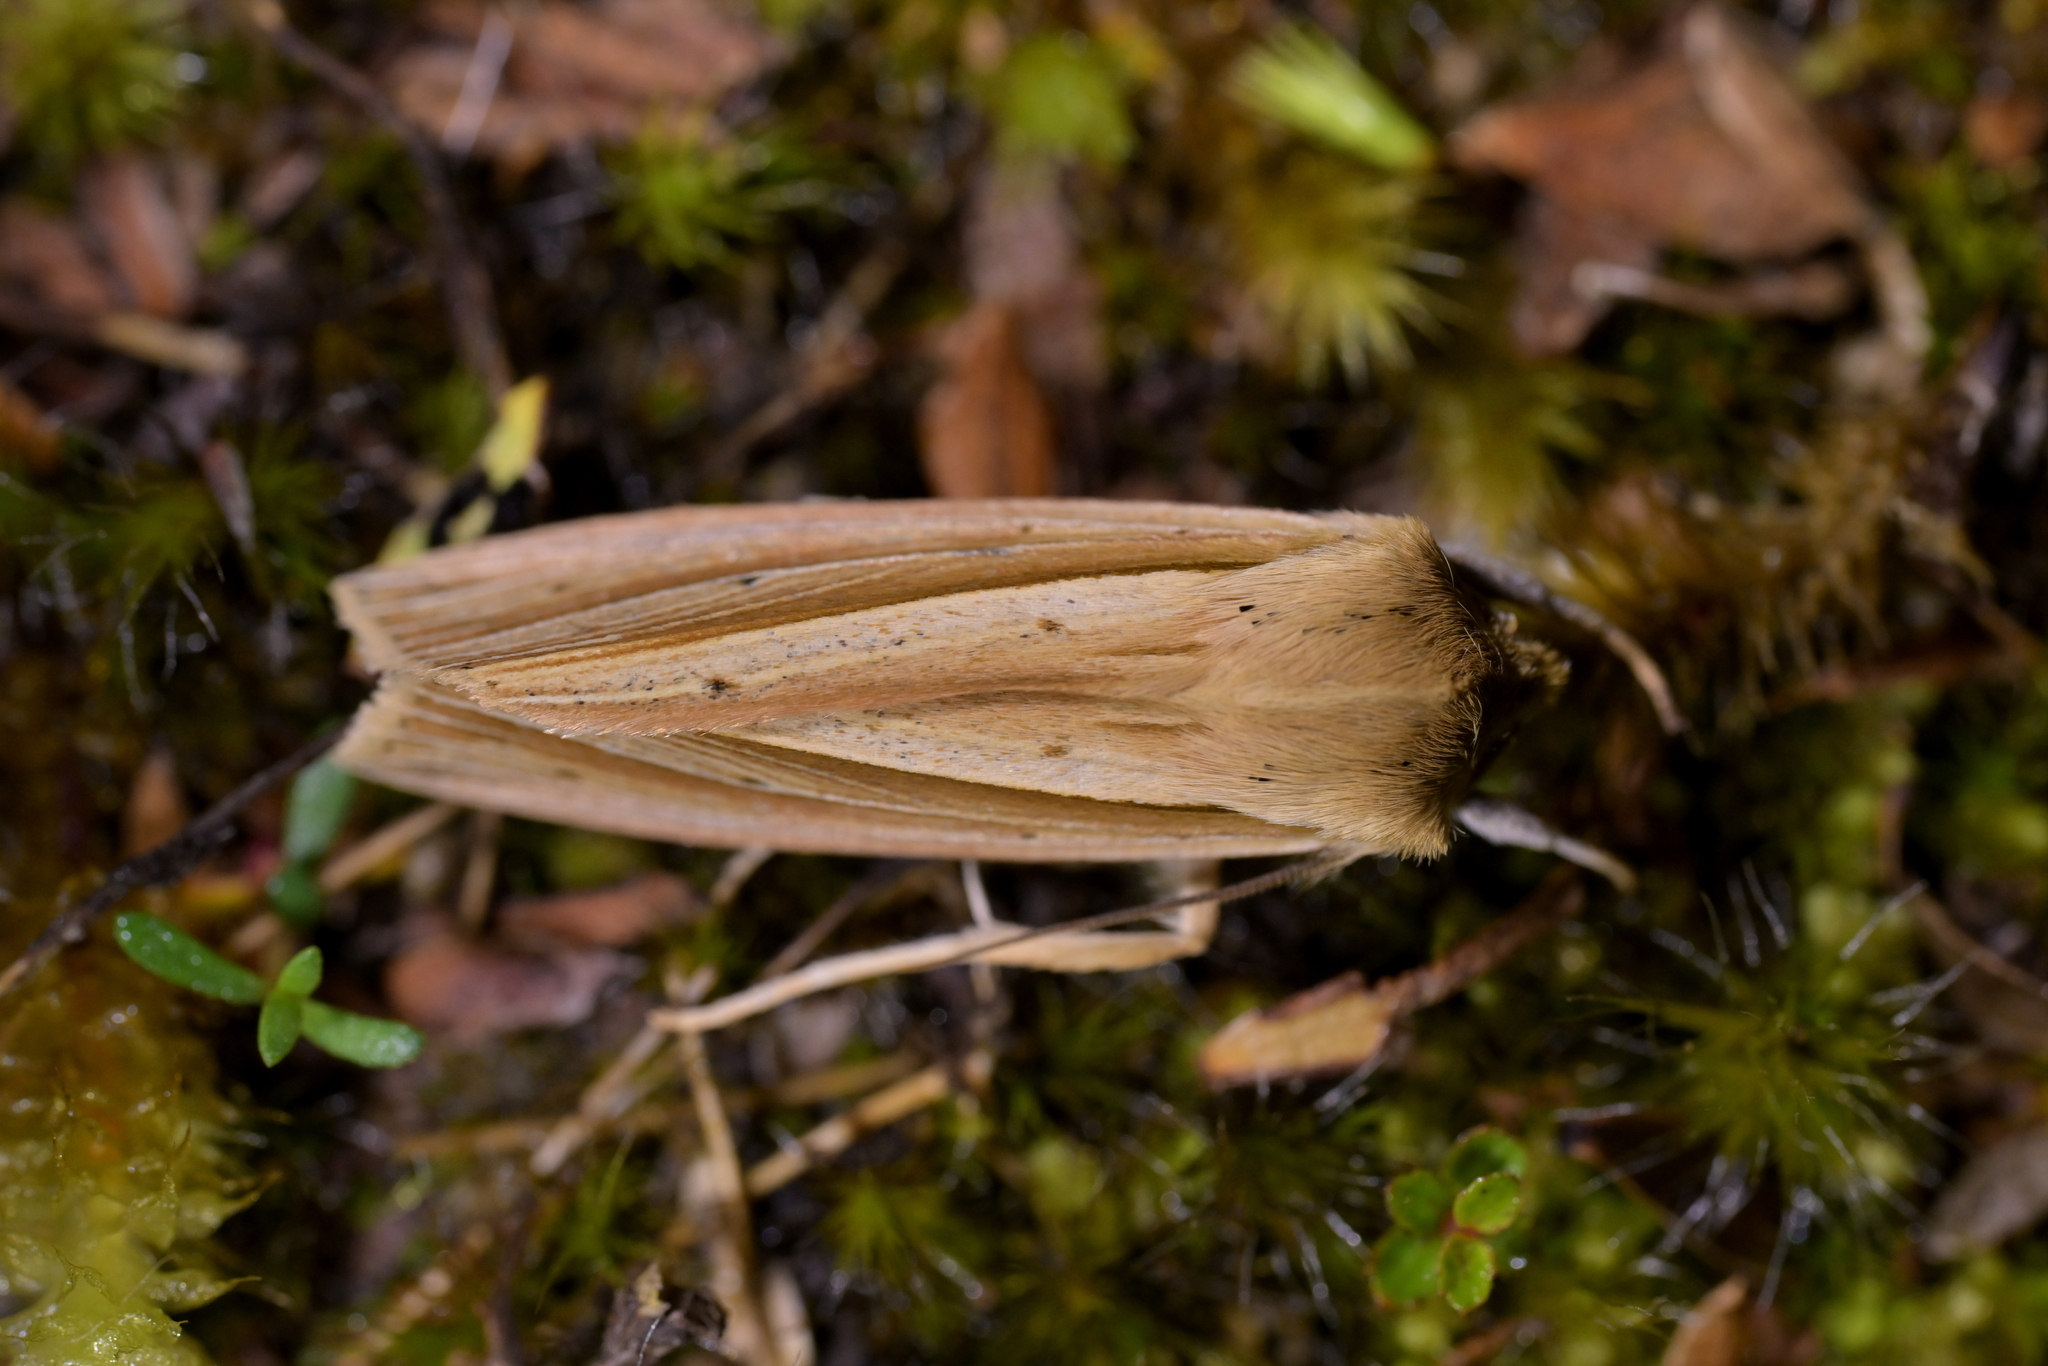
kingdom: Animalia
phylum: Arthropoda
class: Insecta
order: Lepidoptera
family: Noctuidae
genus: Ichneutica
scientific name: Ichneutica sulcana
